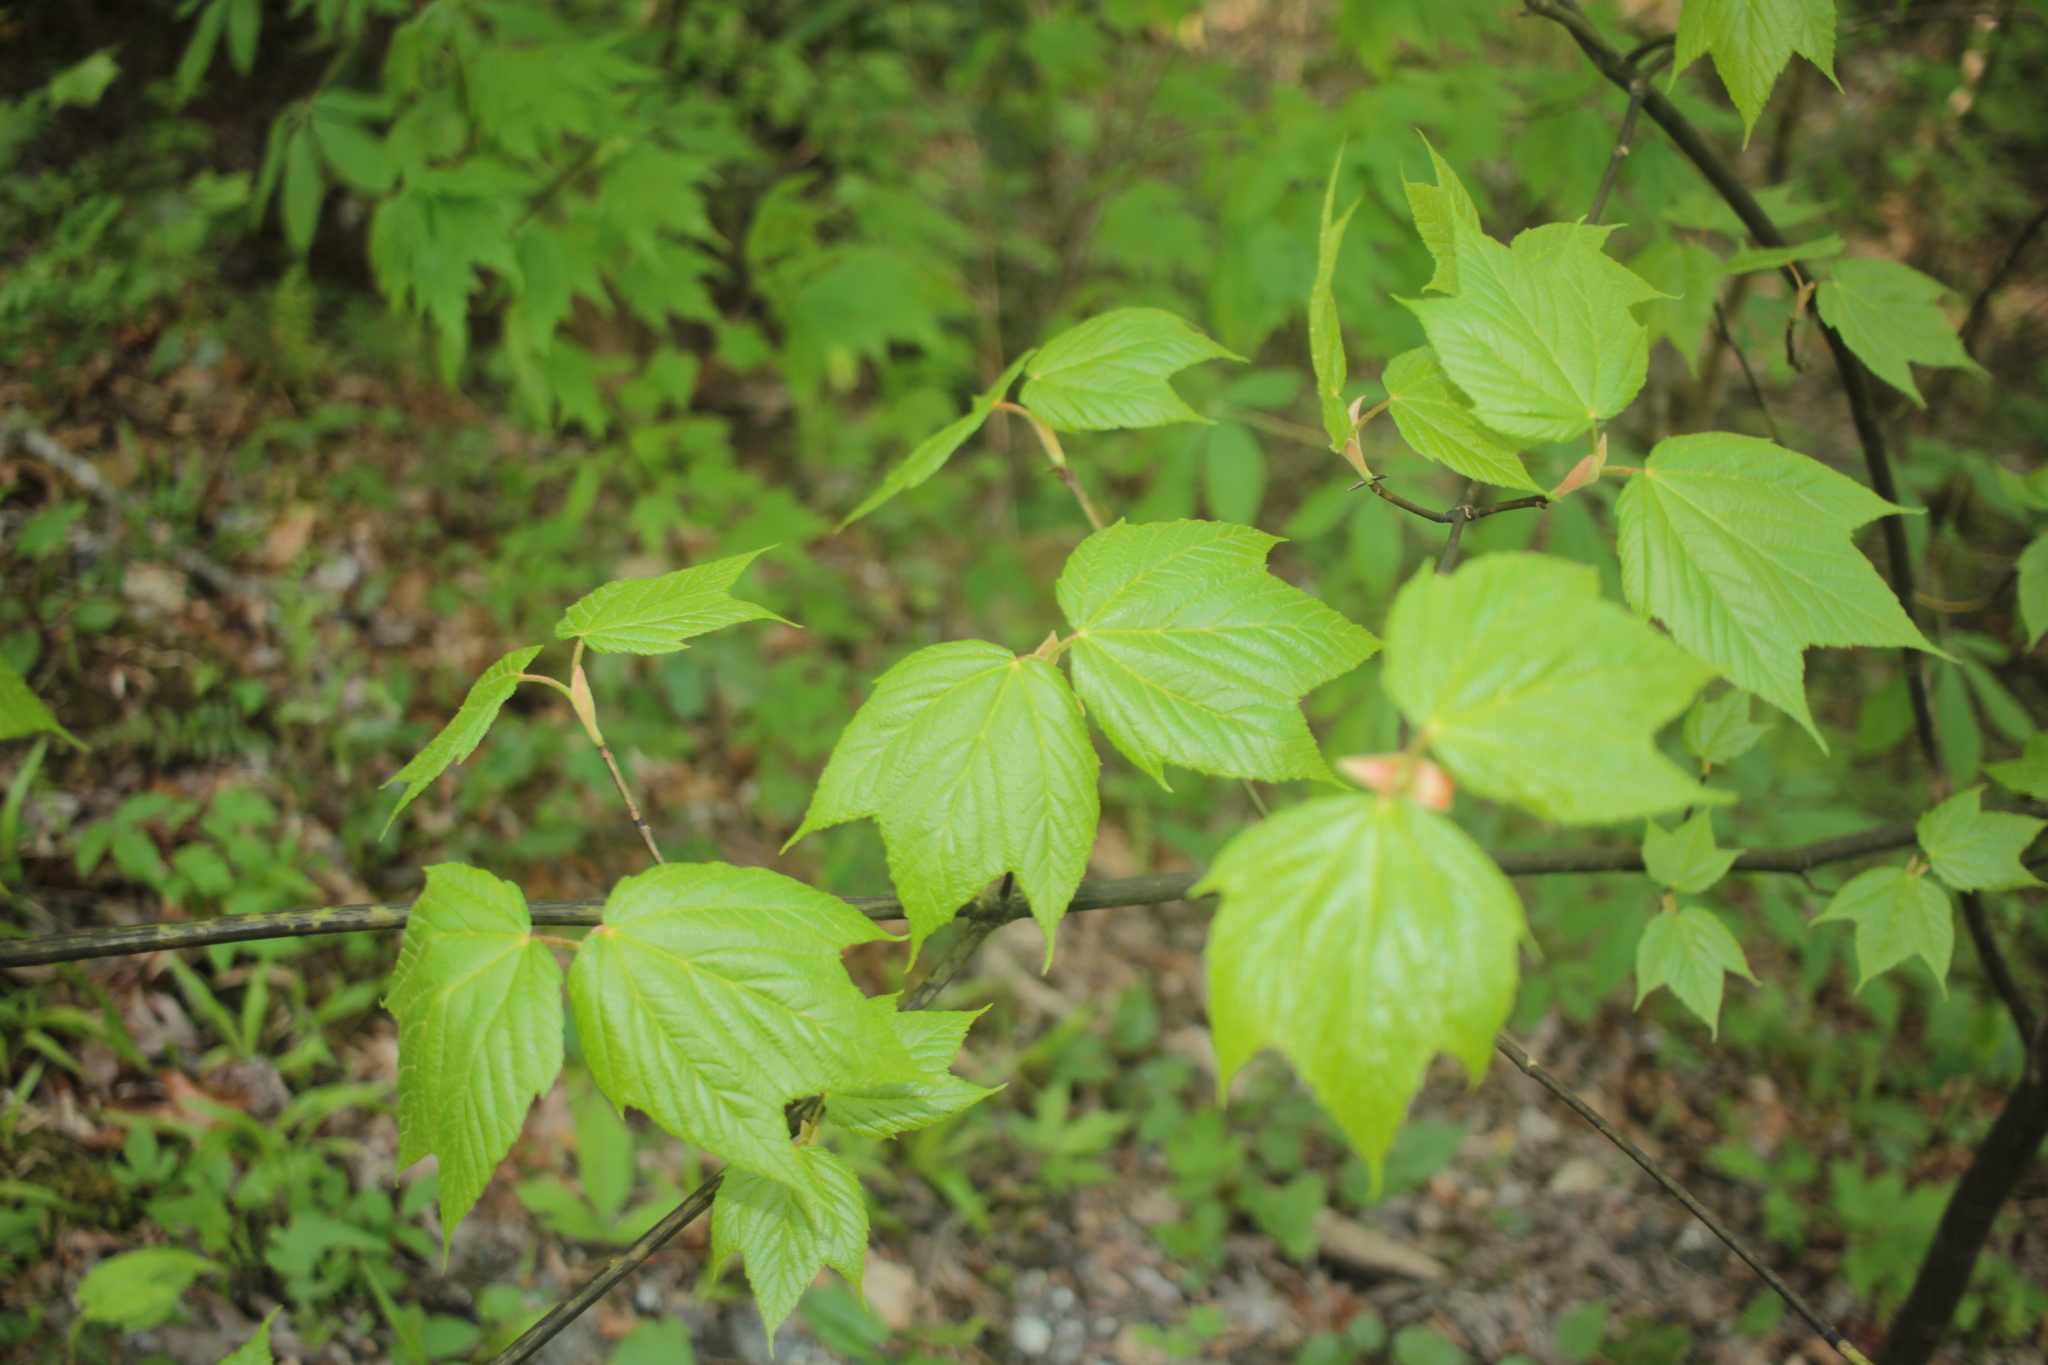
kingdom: Plantae
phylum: Tracheophyta
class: Magnoliopsida
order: Sapindales
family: Sapindaceae
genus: Acer
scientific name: Acer pensylvanicum
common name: Moosewood
